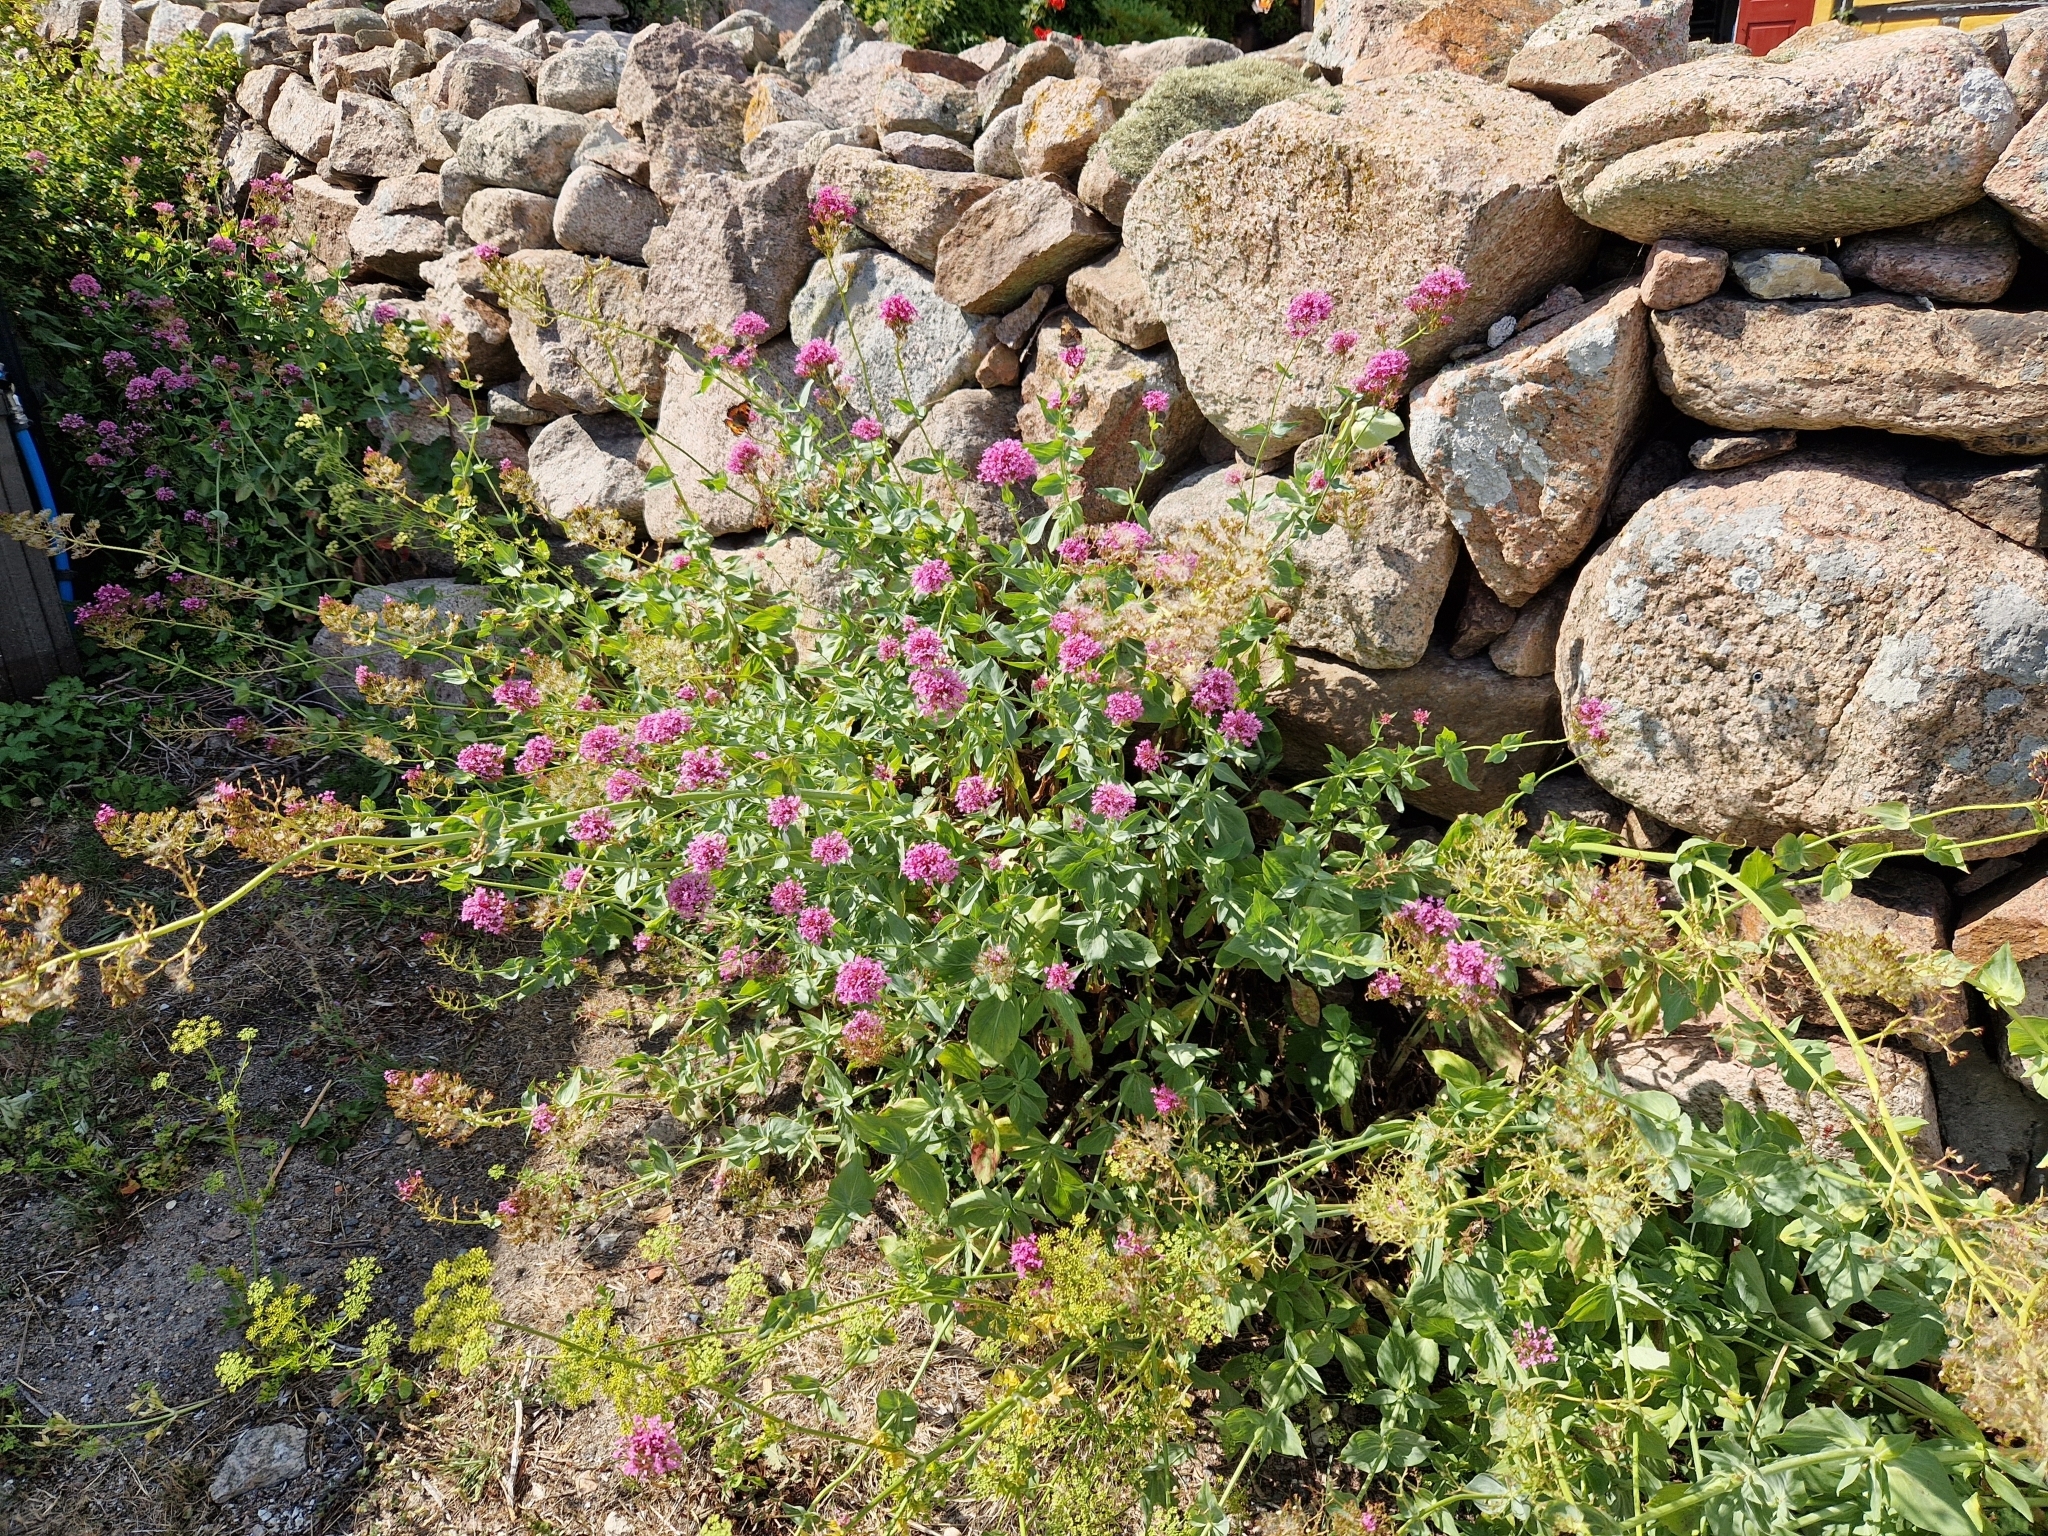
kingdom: Plantae
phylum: Tracheophyta
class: Magnoliopsida
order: Dipsacales
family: Caprifoliaceae
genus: Centranthus
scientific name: Centranthus ruber
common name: Red valerian
